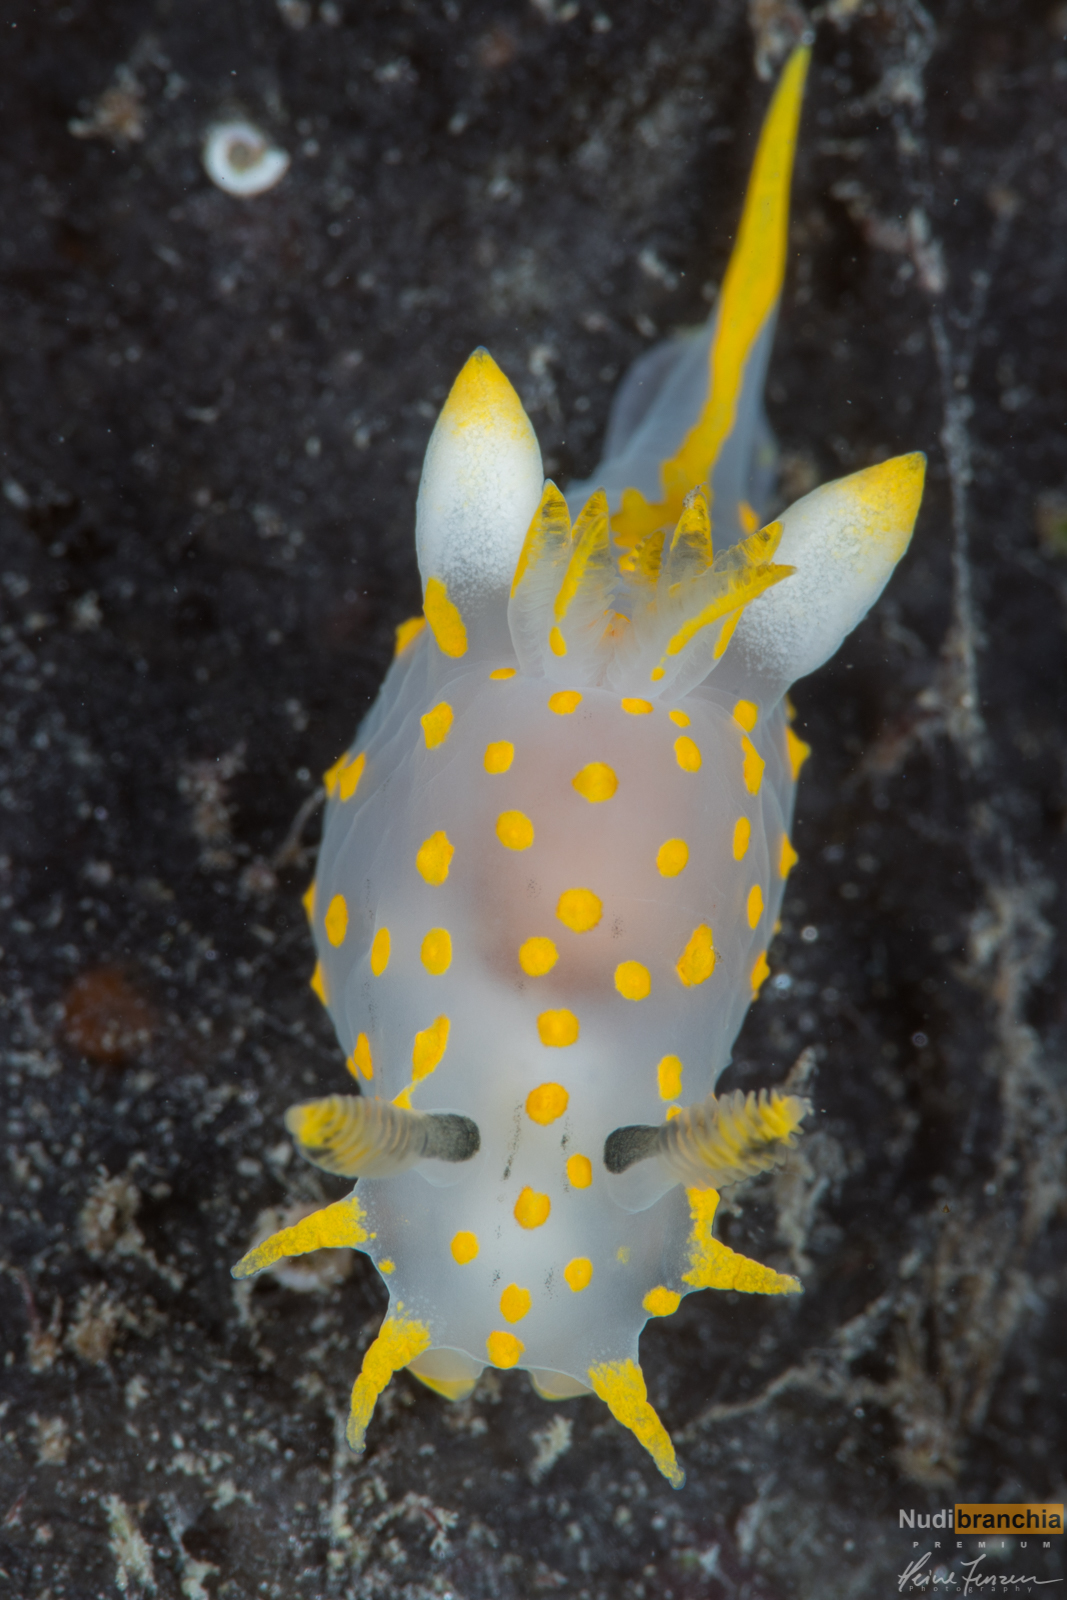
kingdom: Animalia
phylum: Mollusca
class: Gastropoda
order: Nudibranchia
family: Polyceridae
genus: Polycera
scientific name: Polycera quadrilineata
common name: Four-striped polycera
